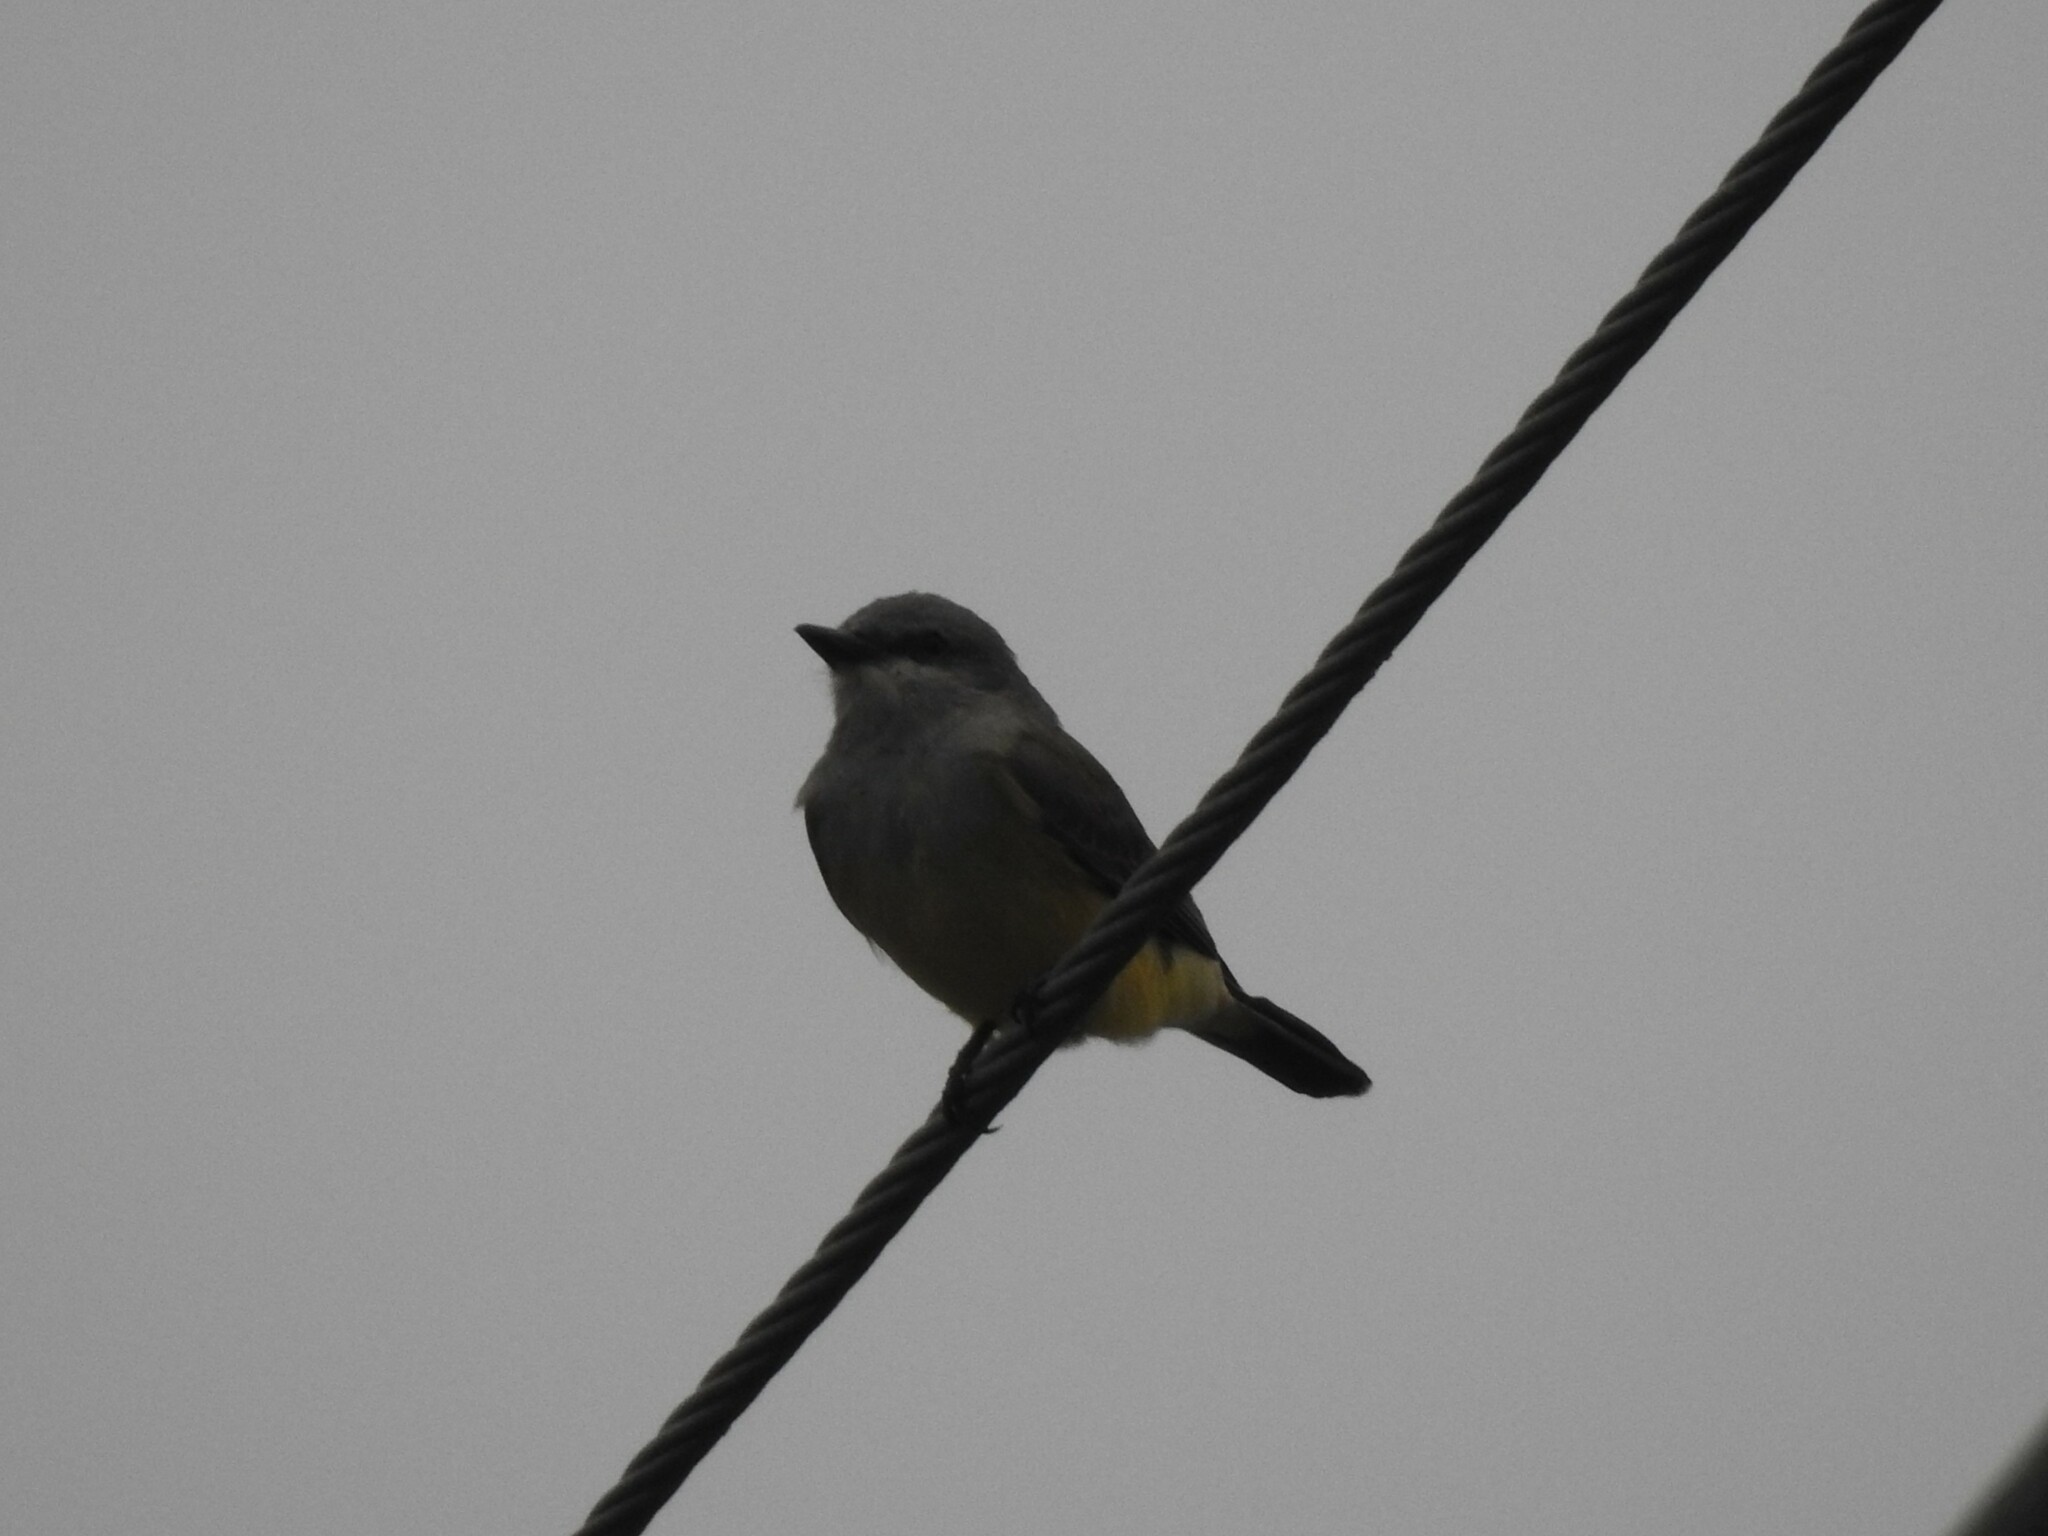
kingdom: Animalia
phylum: Chordata
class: Aves
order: Passeriformes
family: Tyrannidae
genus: Tyrannus
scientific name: Tyrannus verticalis
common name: Western kingbird
